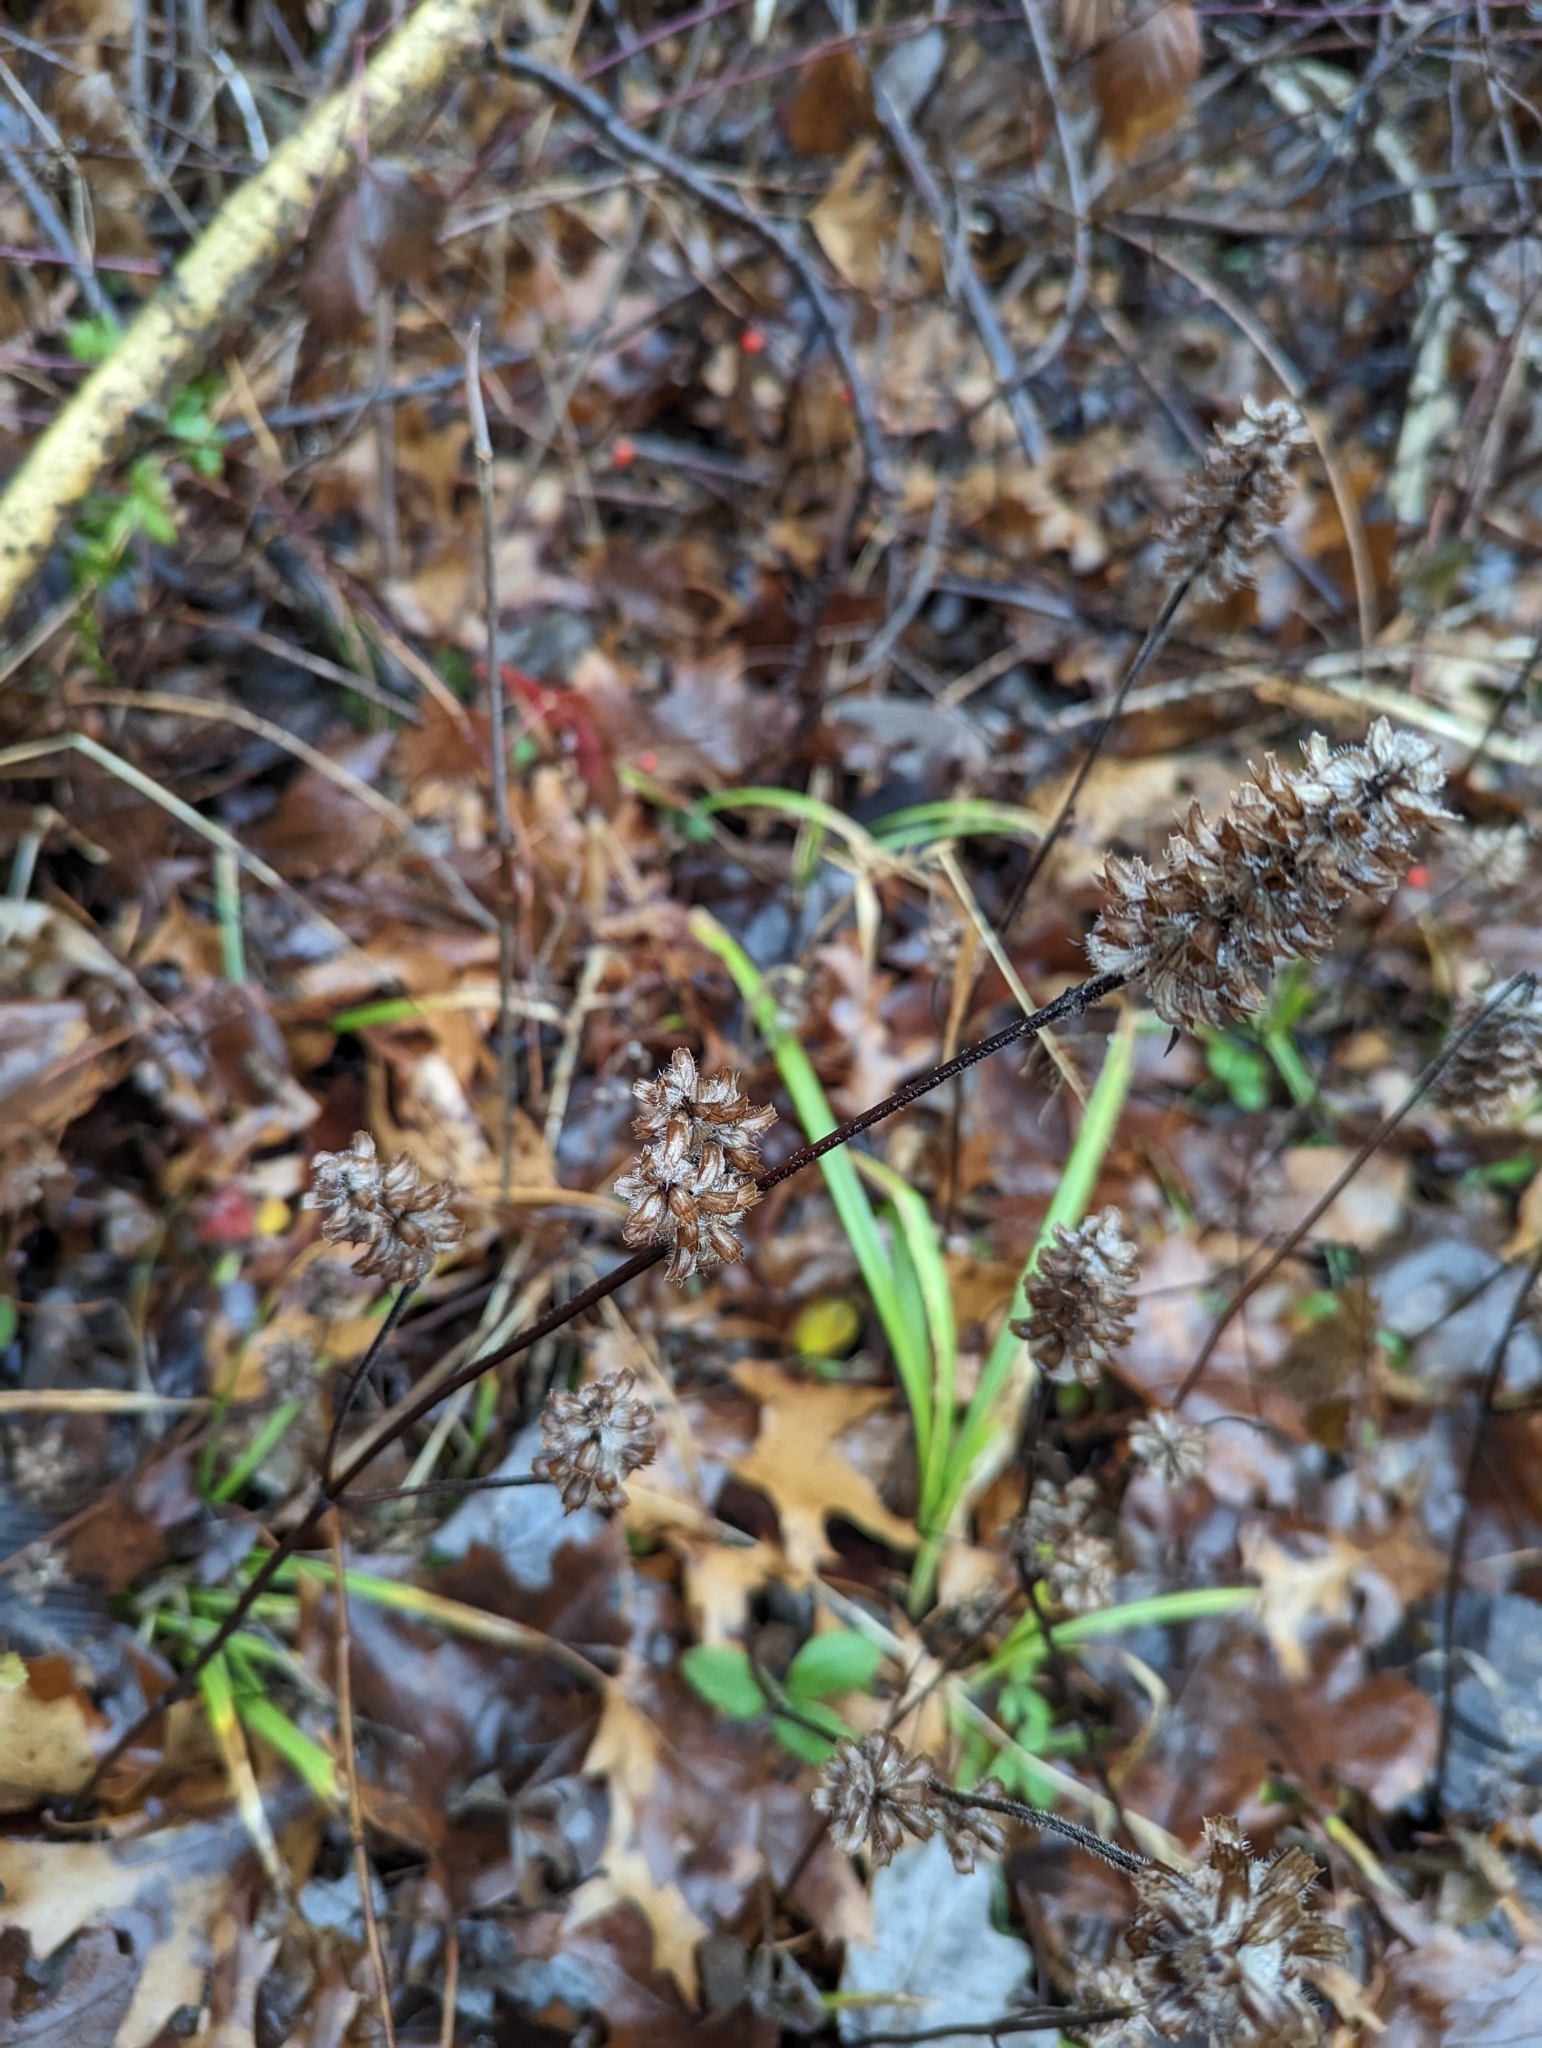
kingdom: Plantae
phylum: Tracheophyta
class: Magnoliopsida
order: Lamiales
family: Lamiaceae
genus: Prunella
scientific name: Prunella vulgaris
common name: Heal-all
